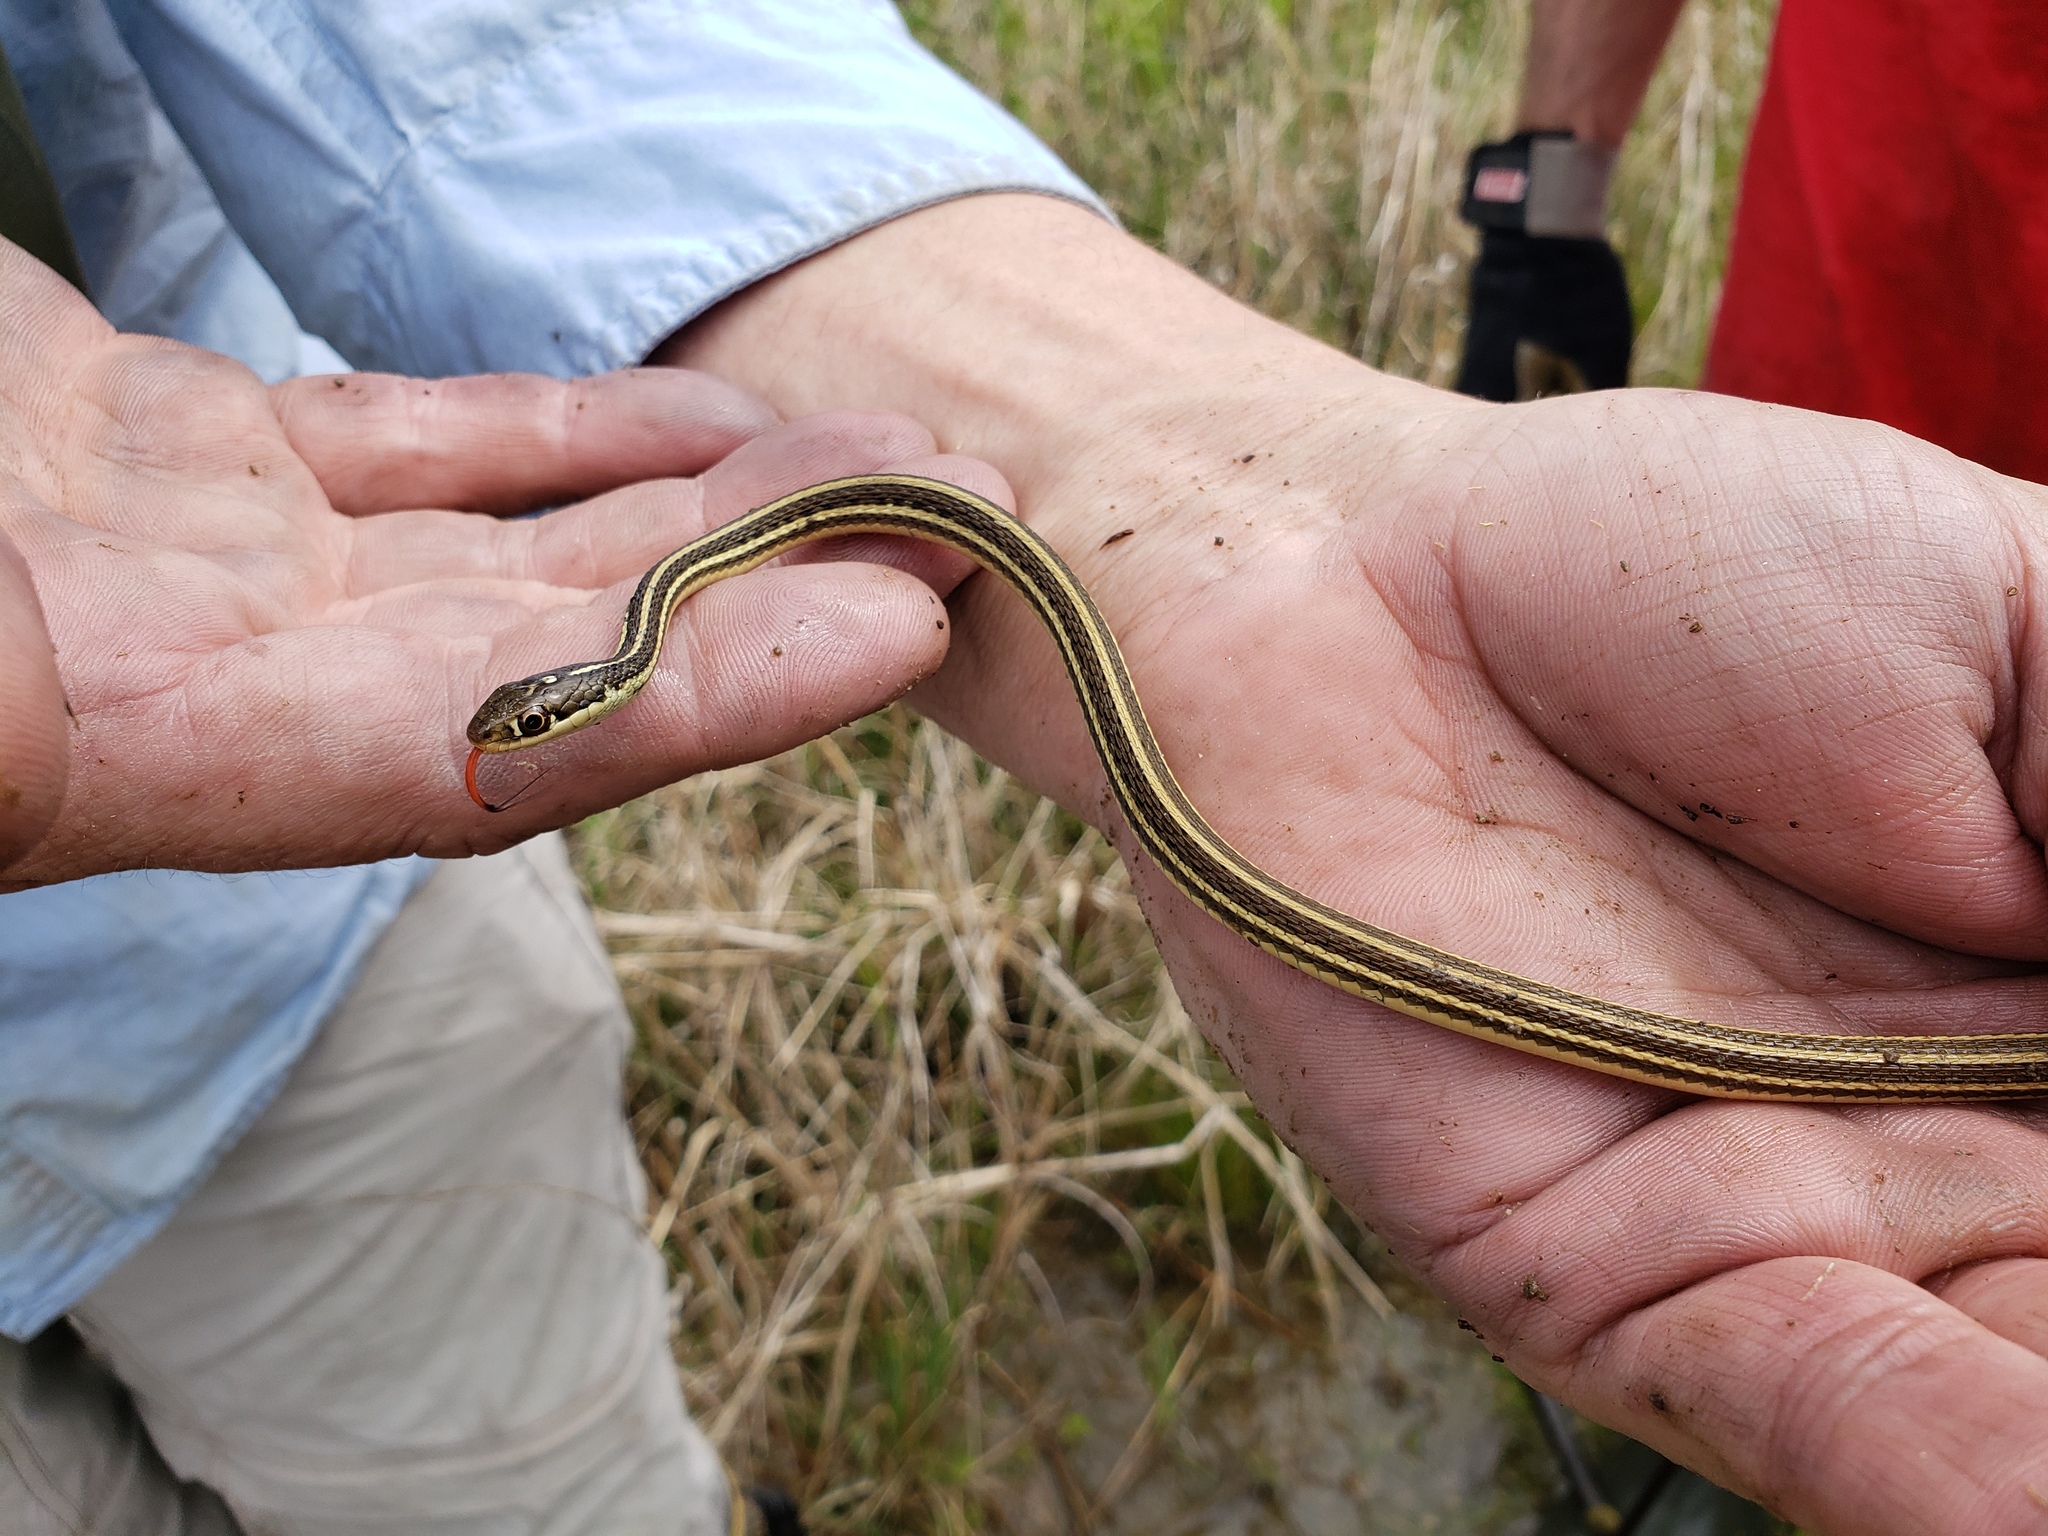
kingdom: Animalia
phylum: Chordata
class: Squamata
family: Colubridae
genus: Thamnophis
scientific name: Thamnophis proximus
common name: Western ribbon snake
